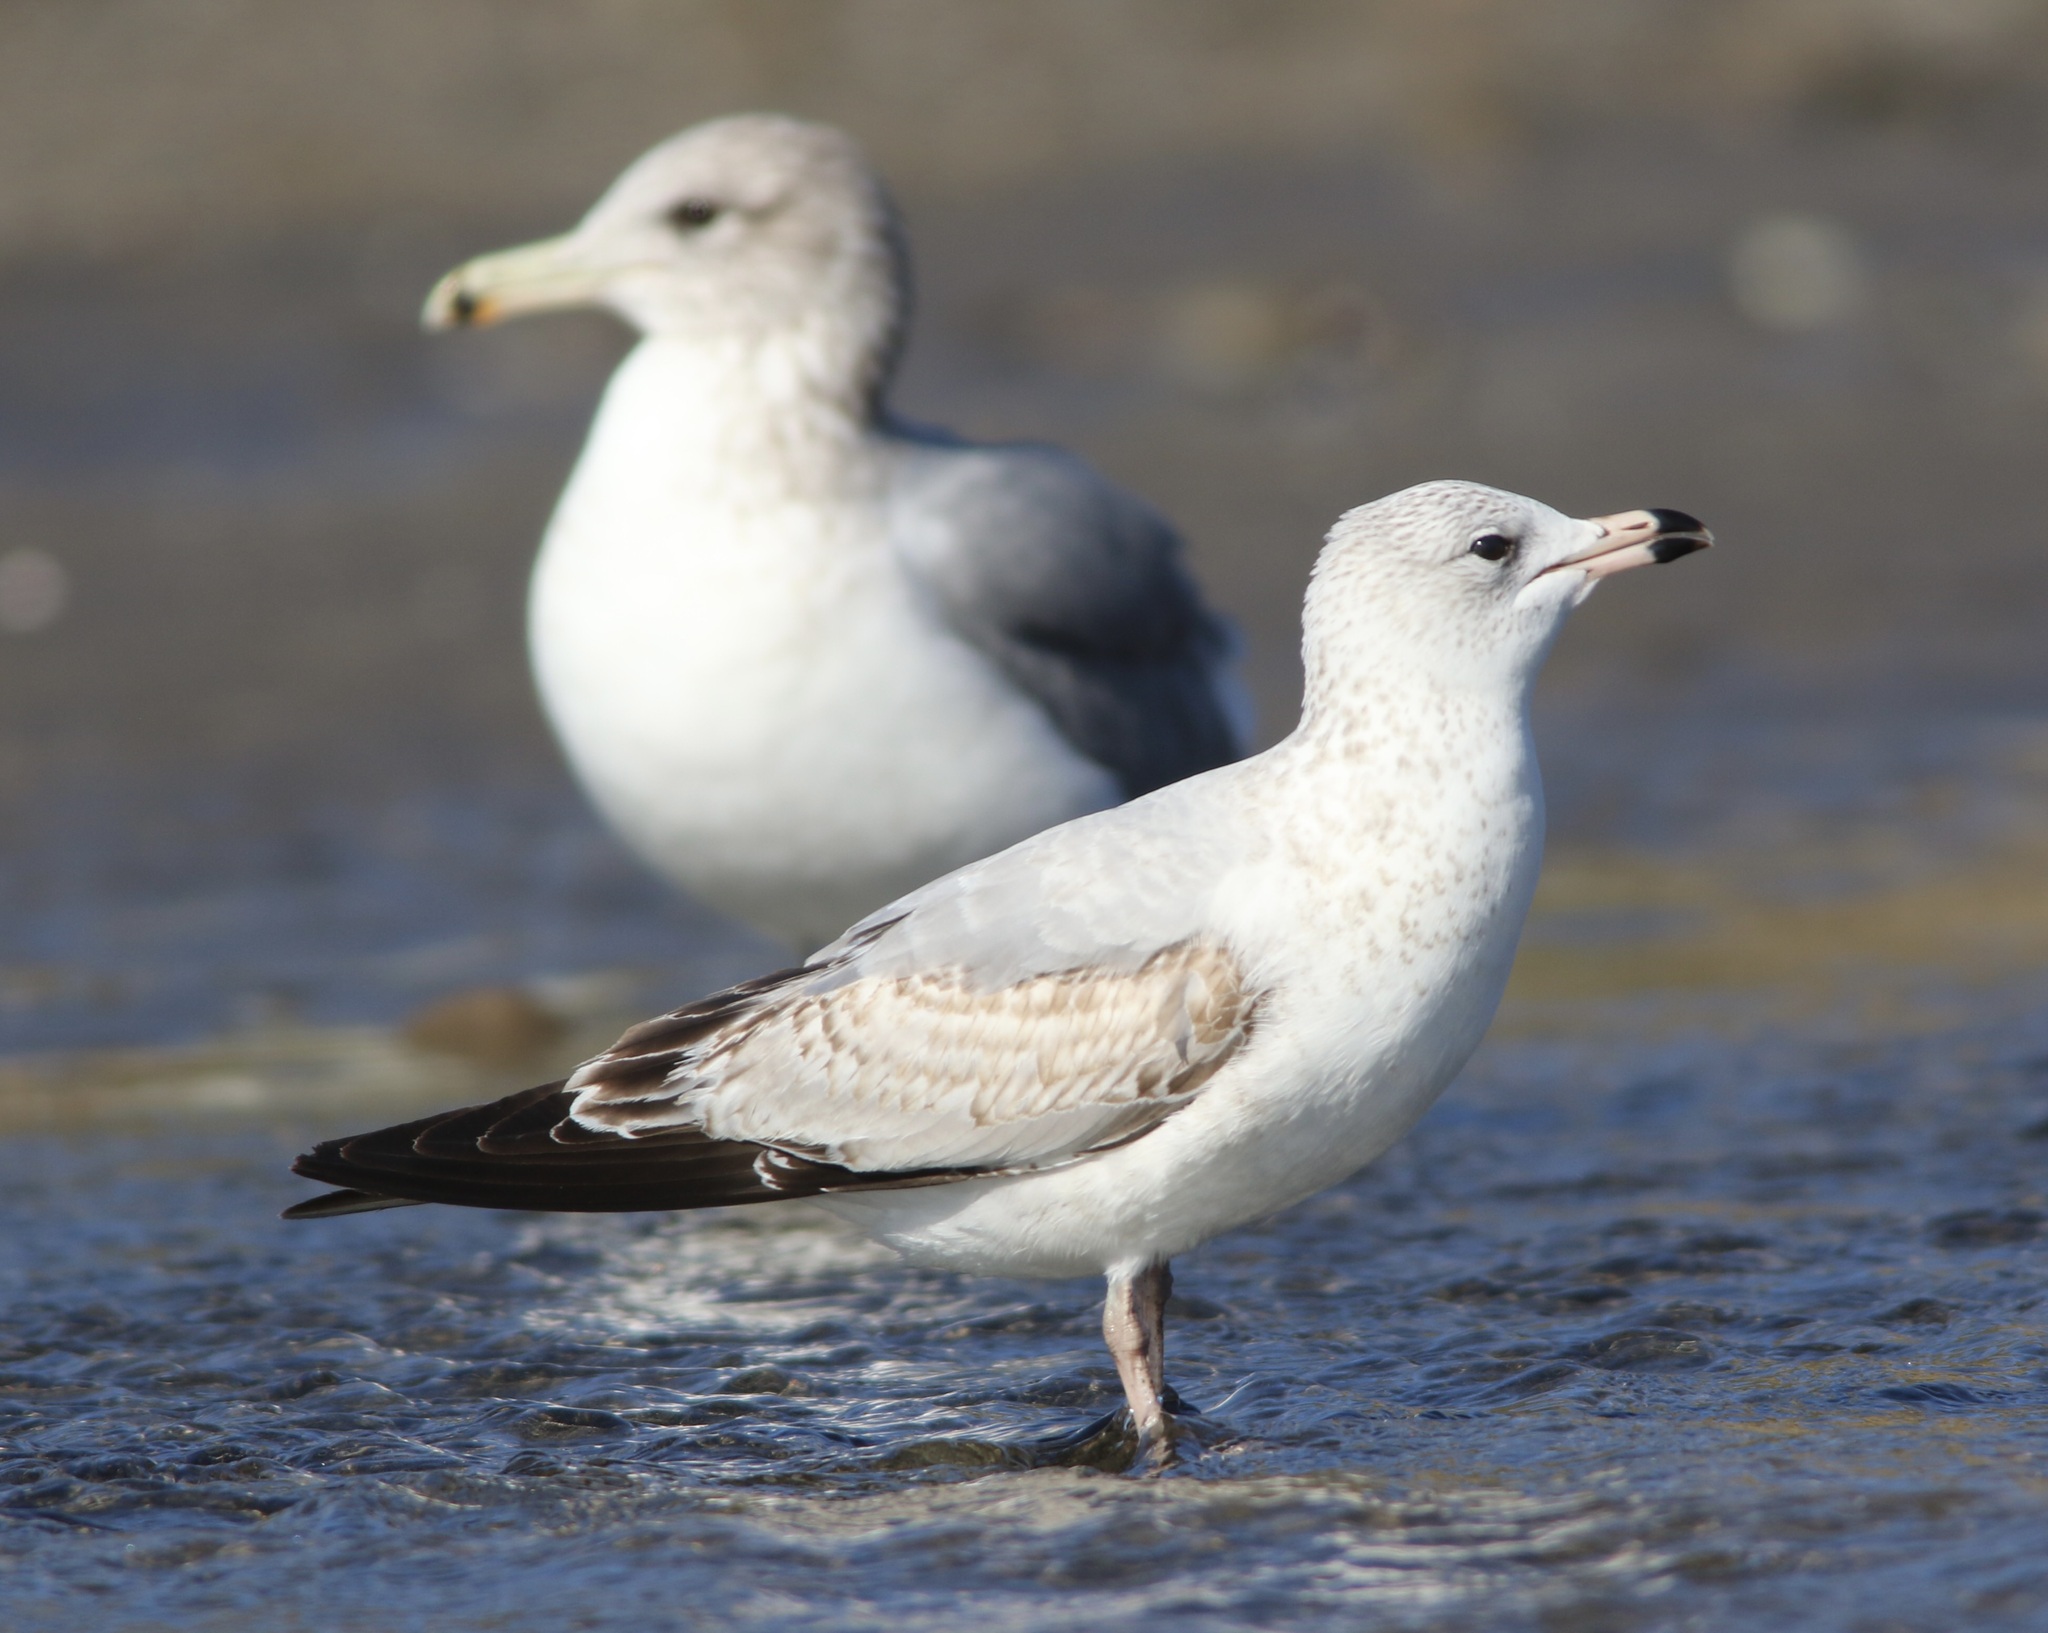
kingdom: Animalia
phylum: Chordata
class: Aves
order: Charadriiformes
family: Laridae
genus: Larus
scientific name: Larus delawarensis
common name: Ring-billed gull
